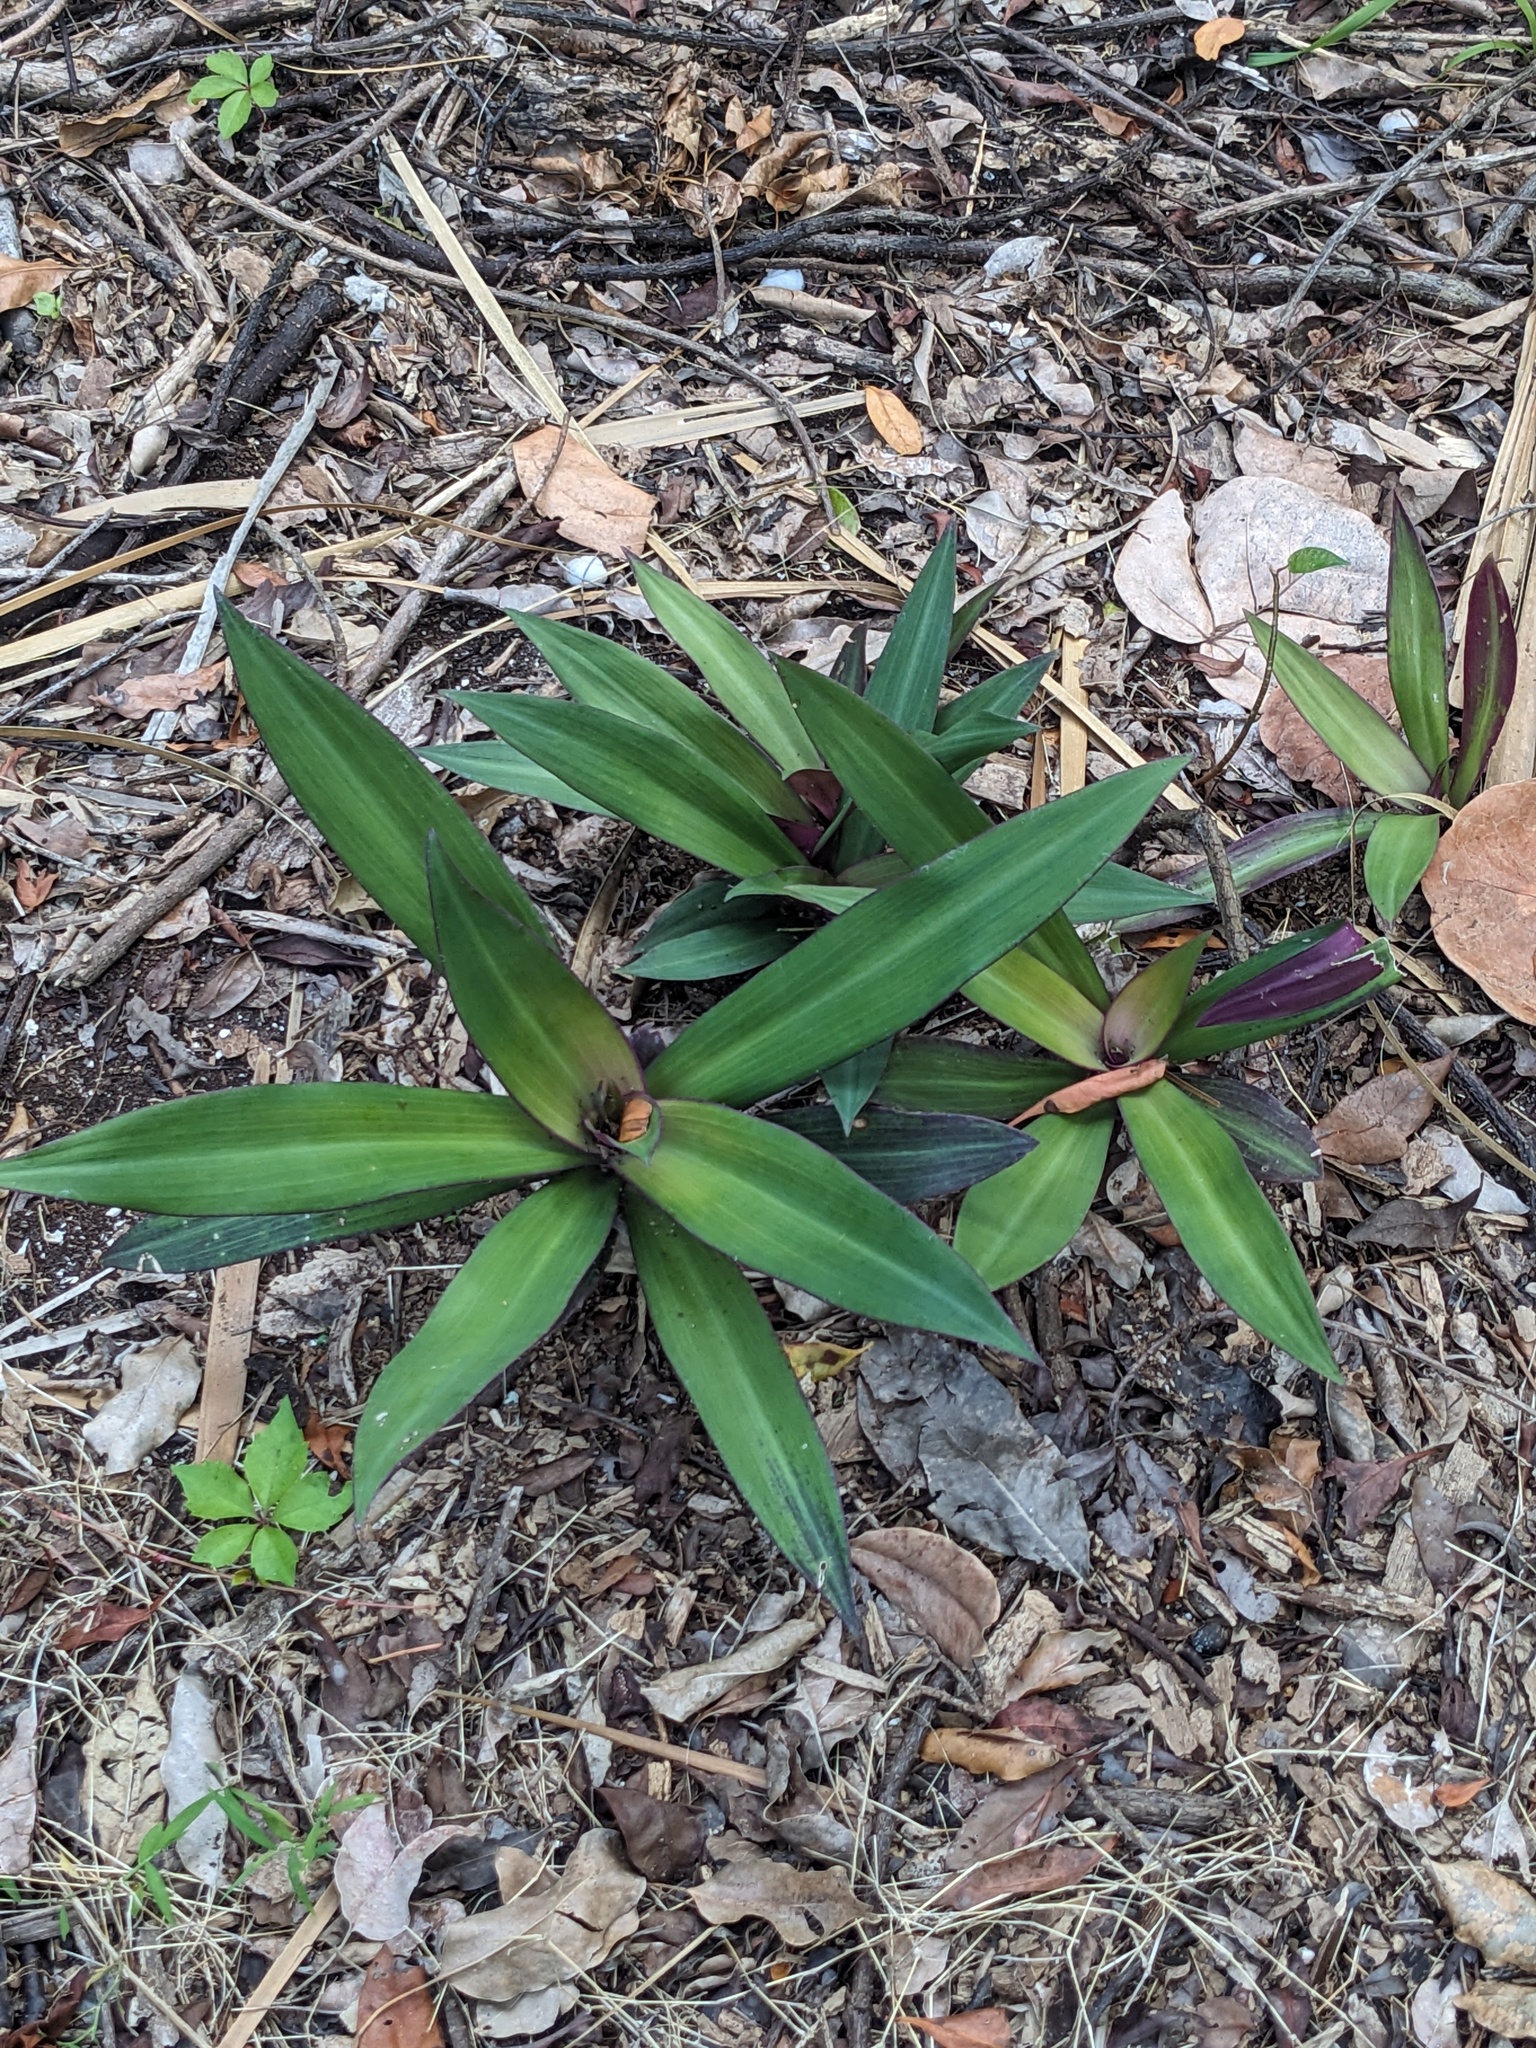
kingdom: Plantae
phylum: Tracheophyta
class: Liliopsida
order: Commelinales
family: Commelinaceae
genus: Tradescantia
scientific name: Tradescantia spathacea
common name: Boatlily
